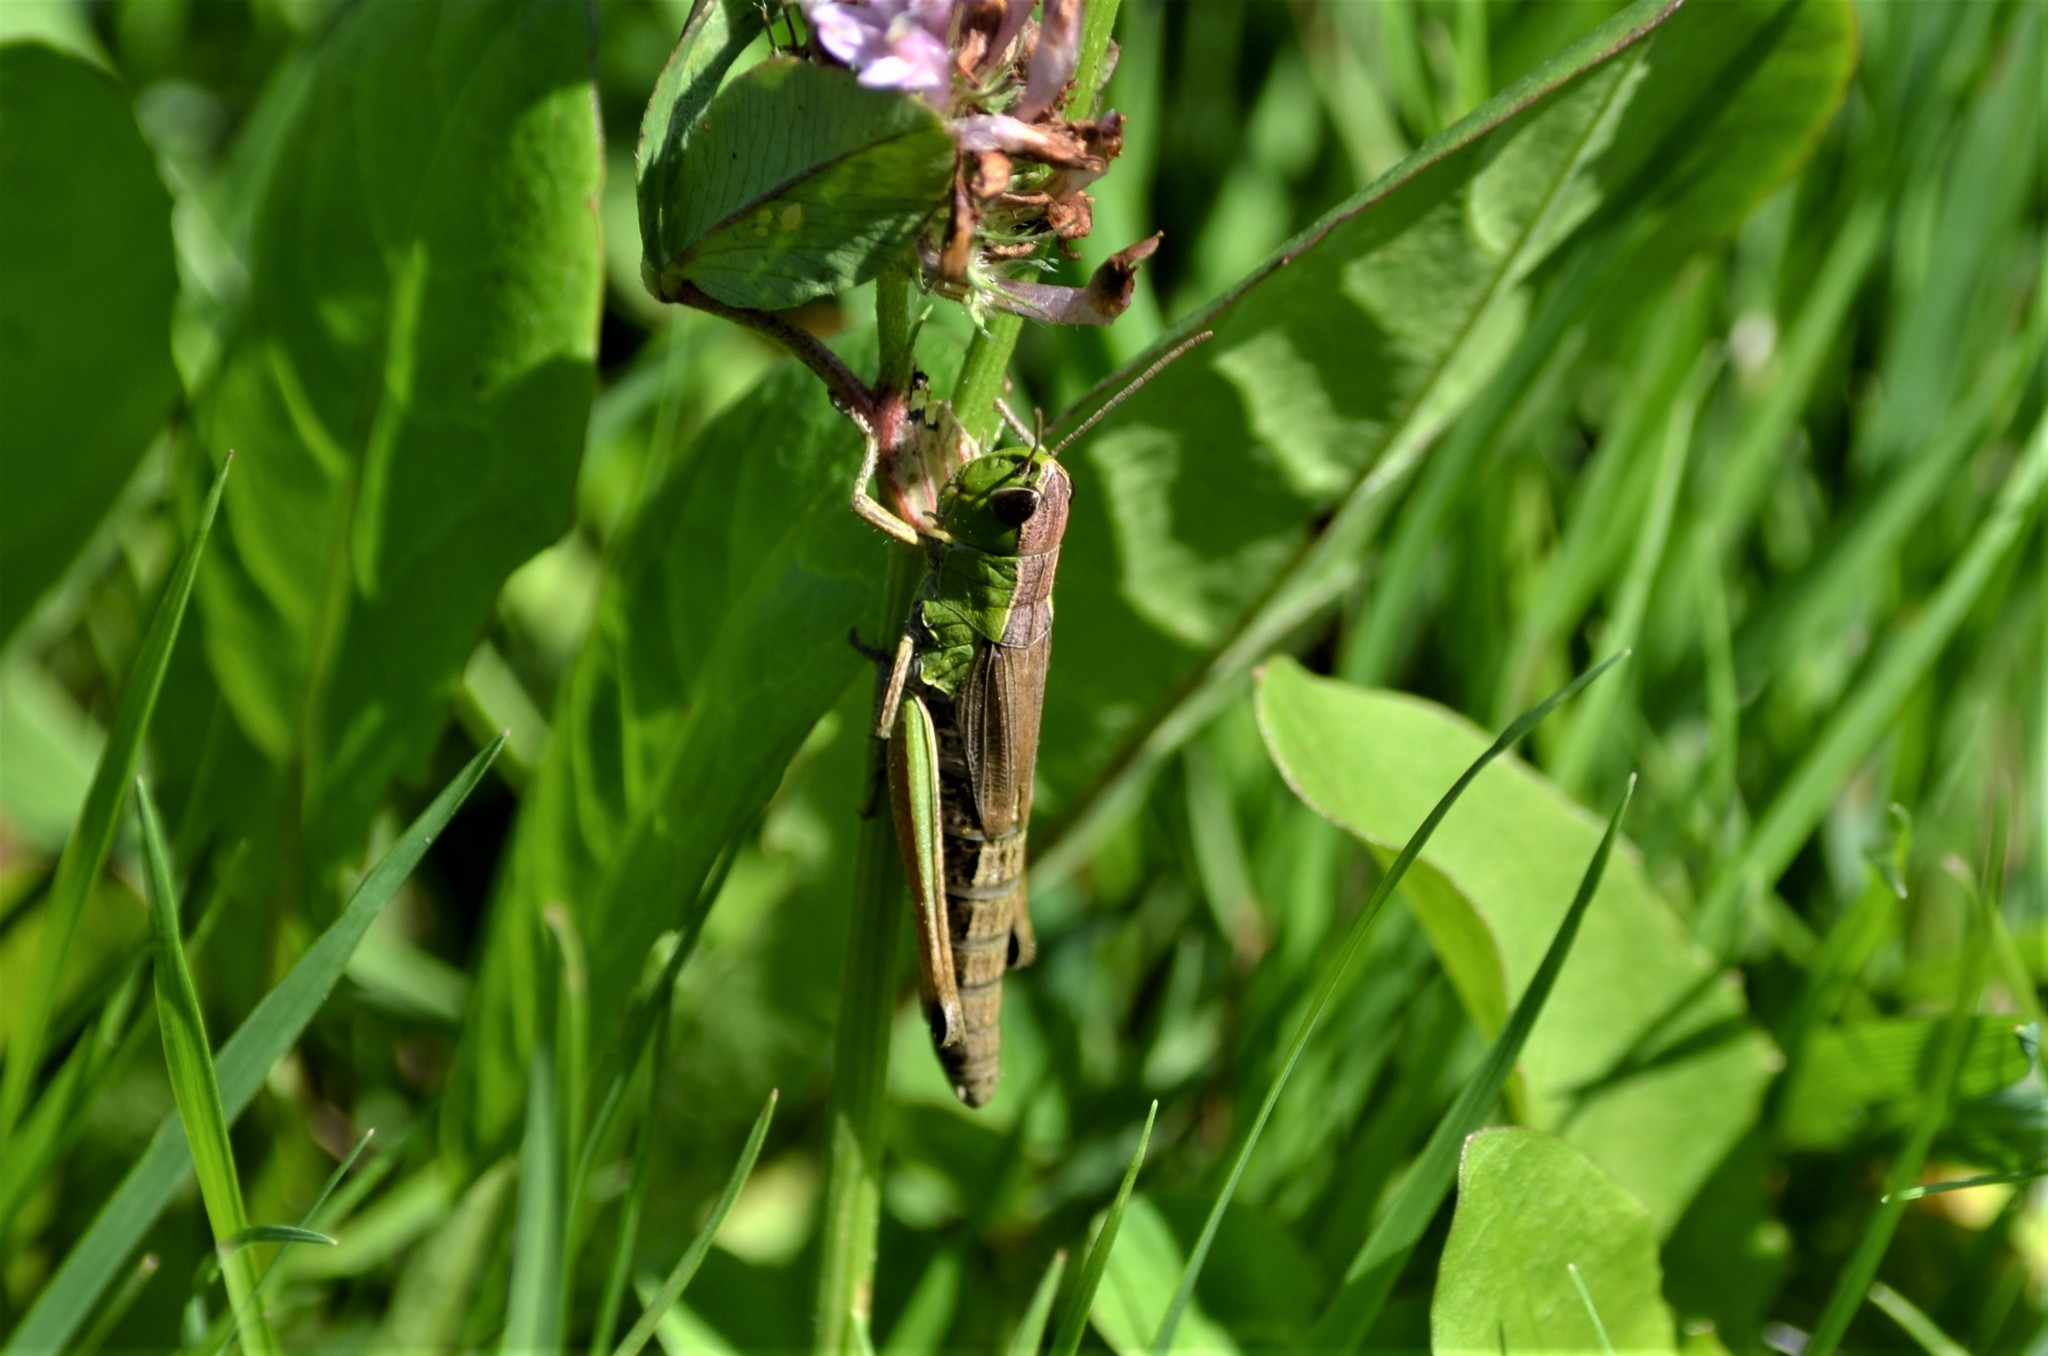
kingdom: Animalia
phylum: Arthropoda
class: Insecta
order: Orthoptera
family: Acrididae
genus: Pseudochorthippus
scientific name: Pseudochorthippus parallelus
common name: Meadow grasshopper
